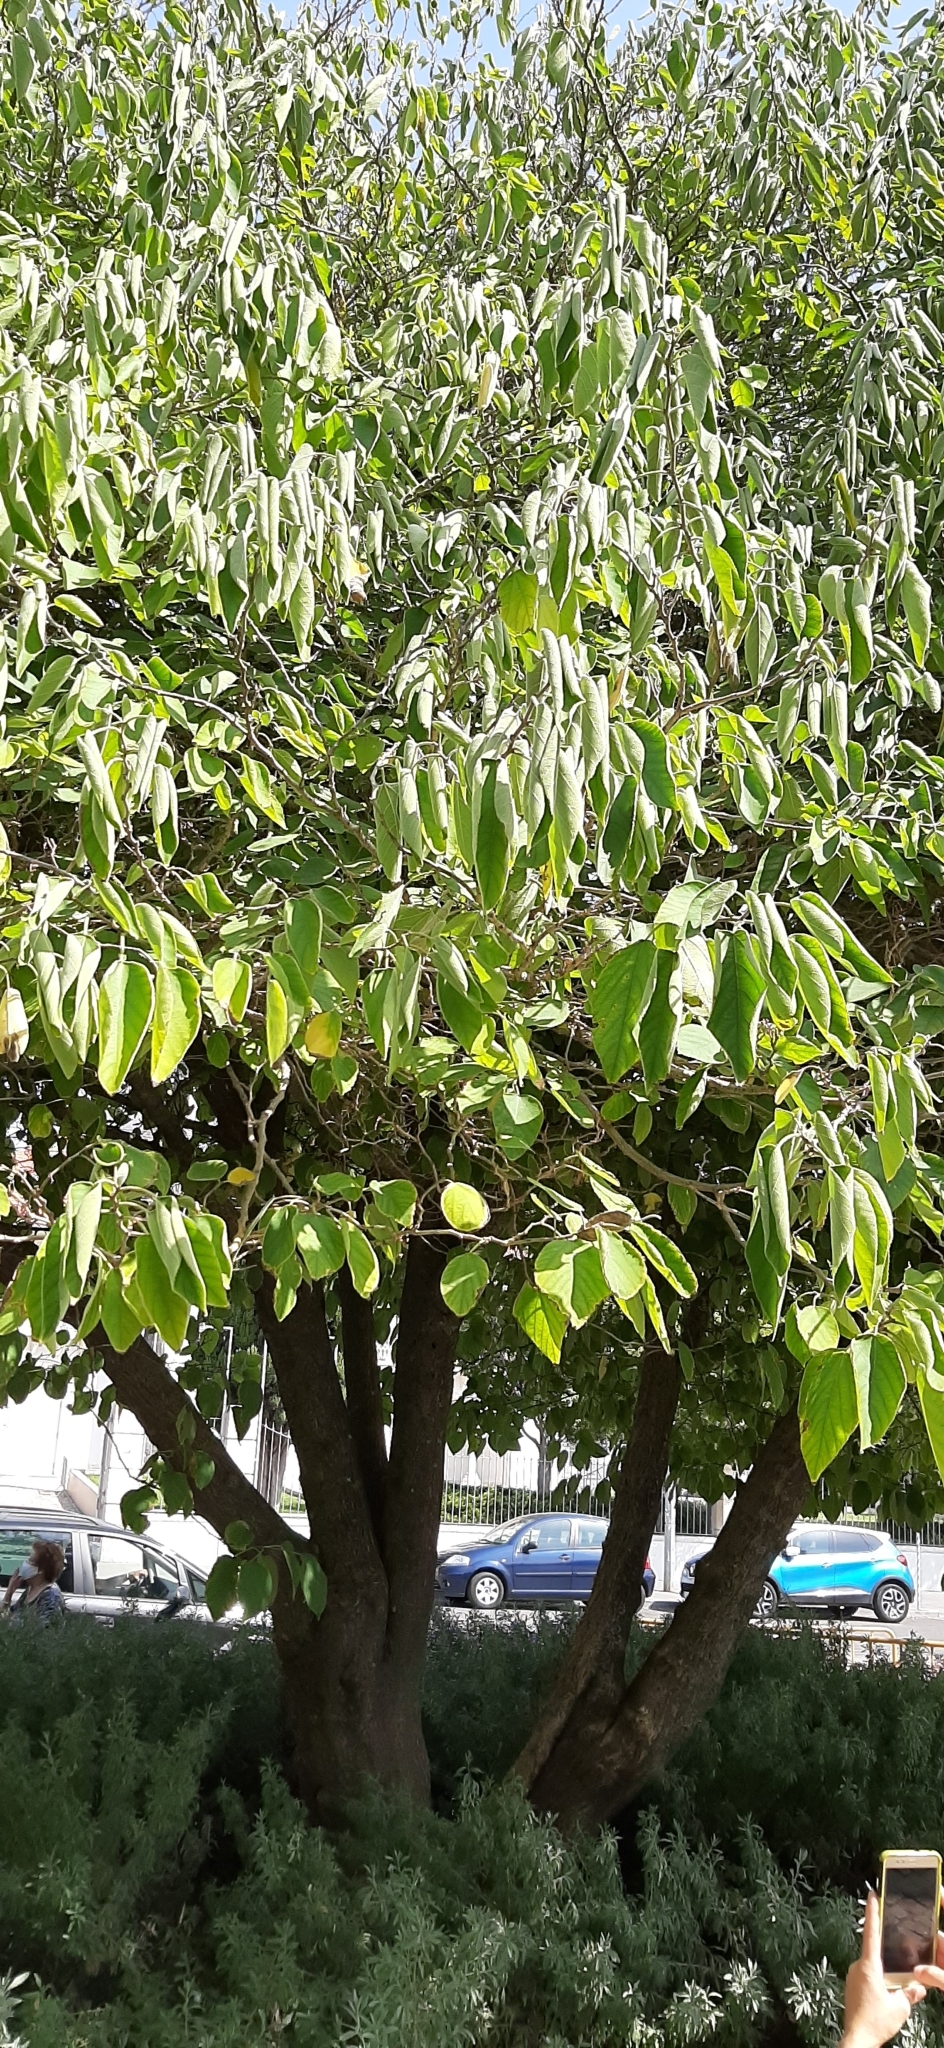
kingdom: Plantae
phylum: Tracheophyta
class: Magnoliopsida
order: Rosales
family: Moraceae
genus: Broussonetia
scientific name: Broussonetia papyrifera
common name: Paper mulberry
